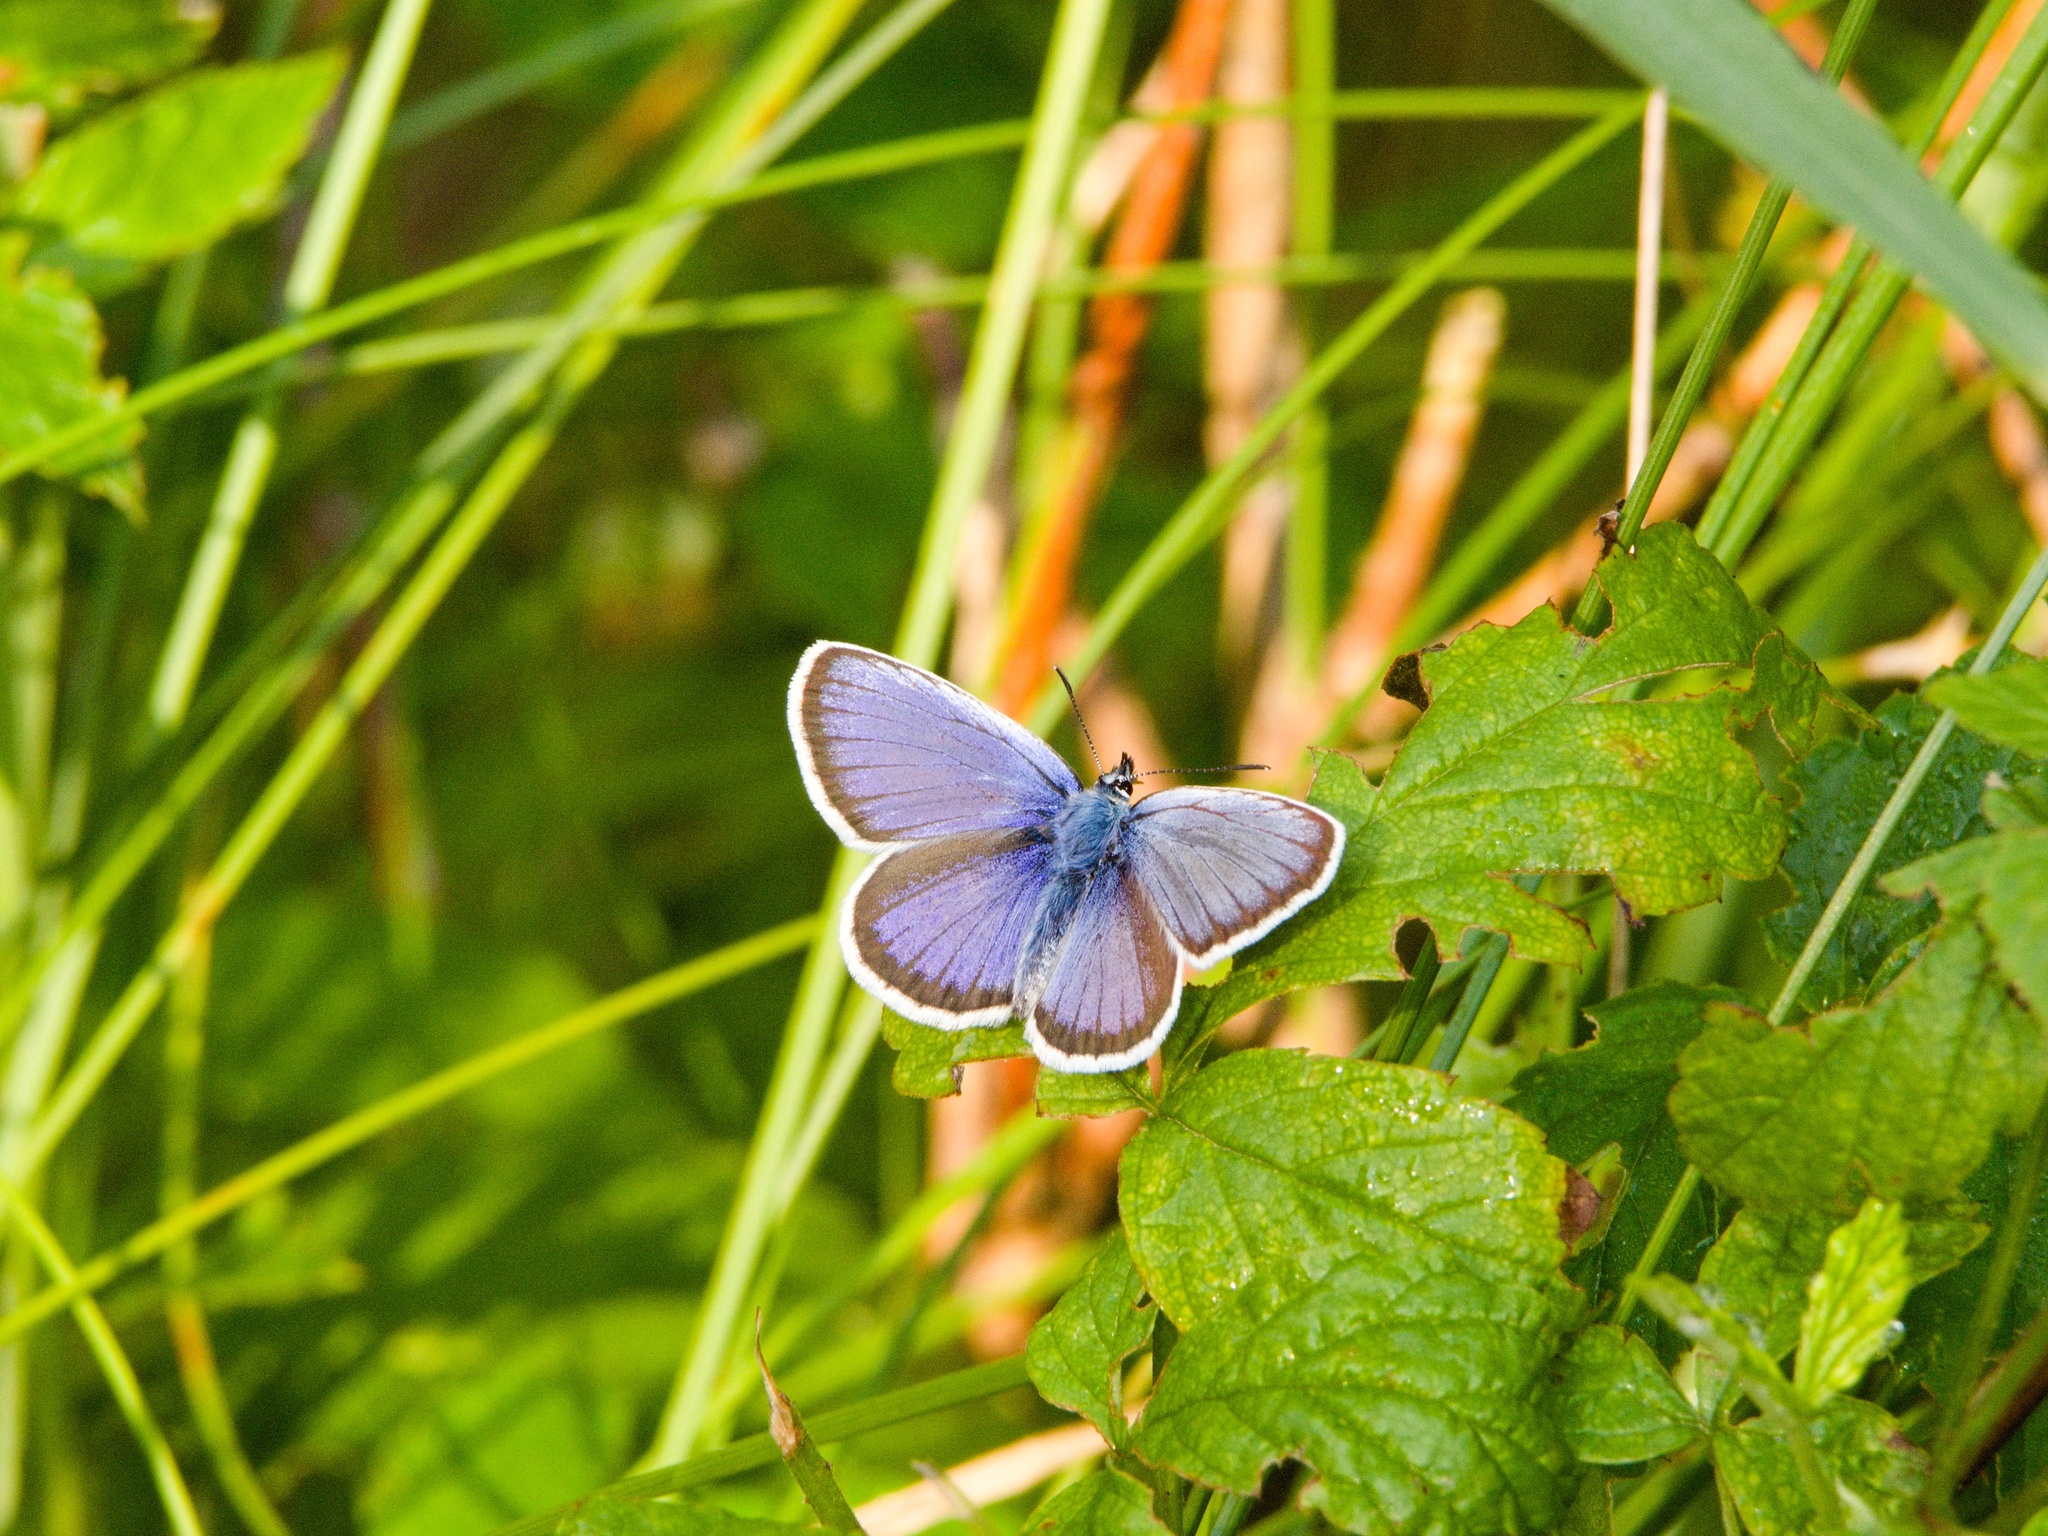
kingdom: Animalia
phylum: Arthropoda
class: Insecta
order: Lepidoptera
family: Lycaenidae
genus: Plebejus
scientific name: Plebejus argus
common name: Silver-studded blue
